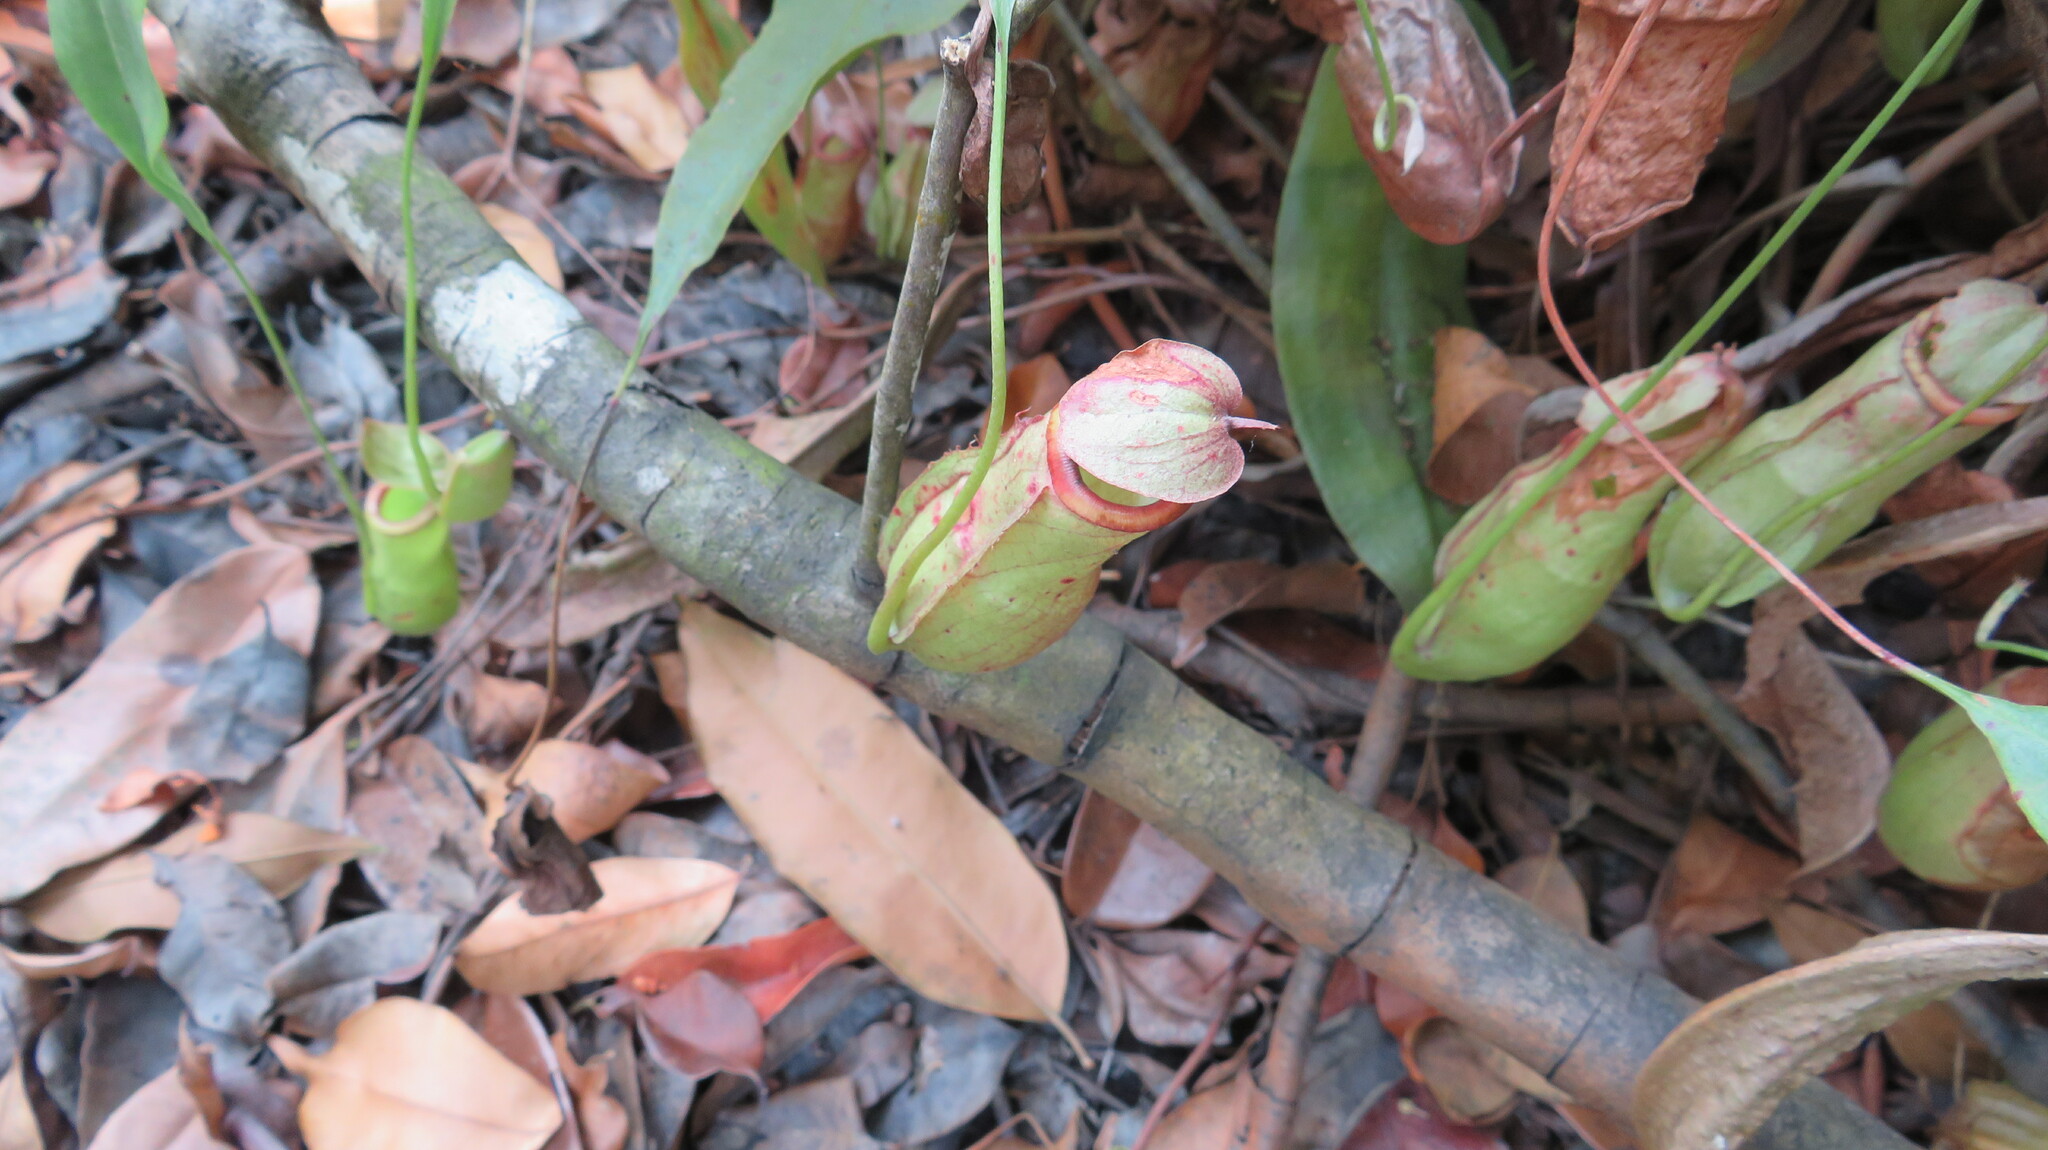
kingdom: Plantae
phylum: Tracheophyta
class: Magnoliopsida
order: Caryophyllales
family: Nepenthaceae
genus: Nepenthes
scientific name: Nepenthes mirabilis
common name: Tropical pitcherplant
